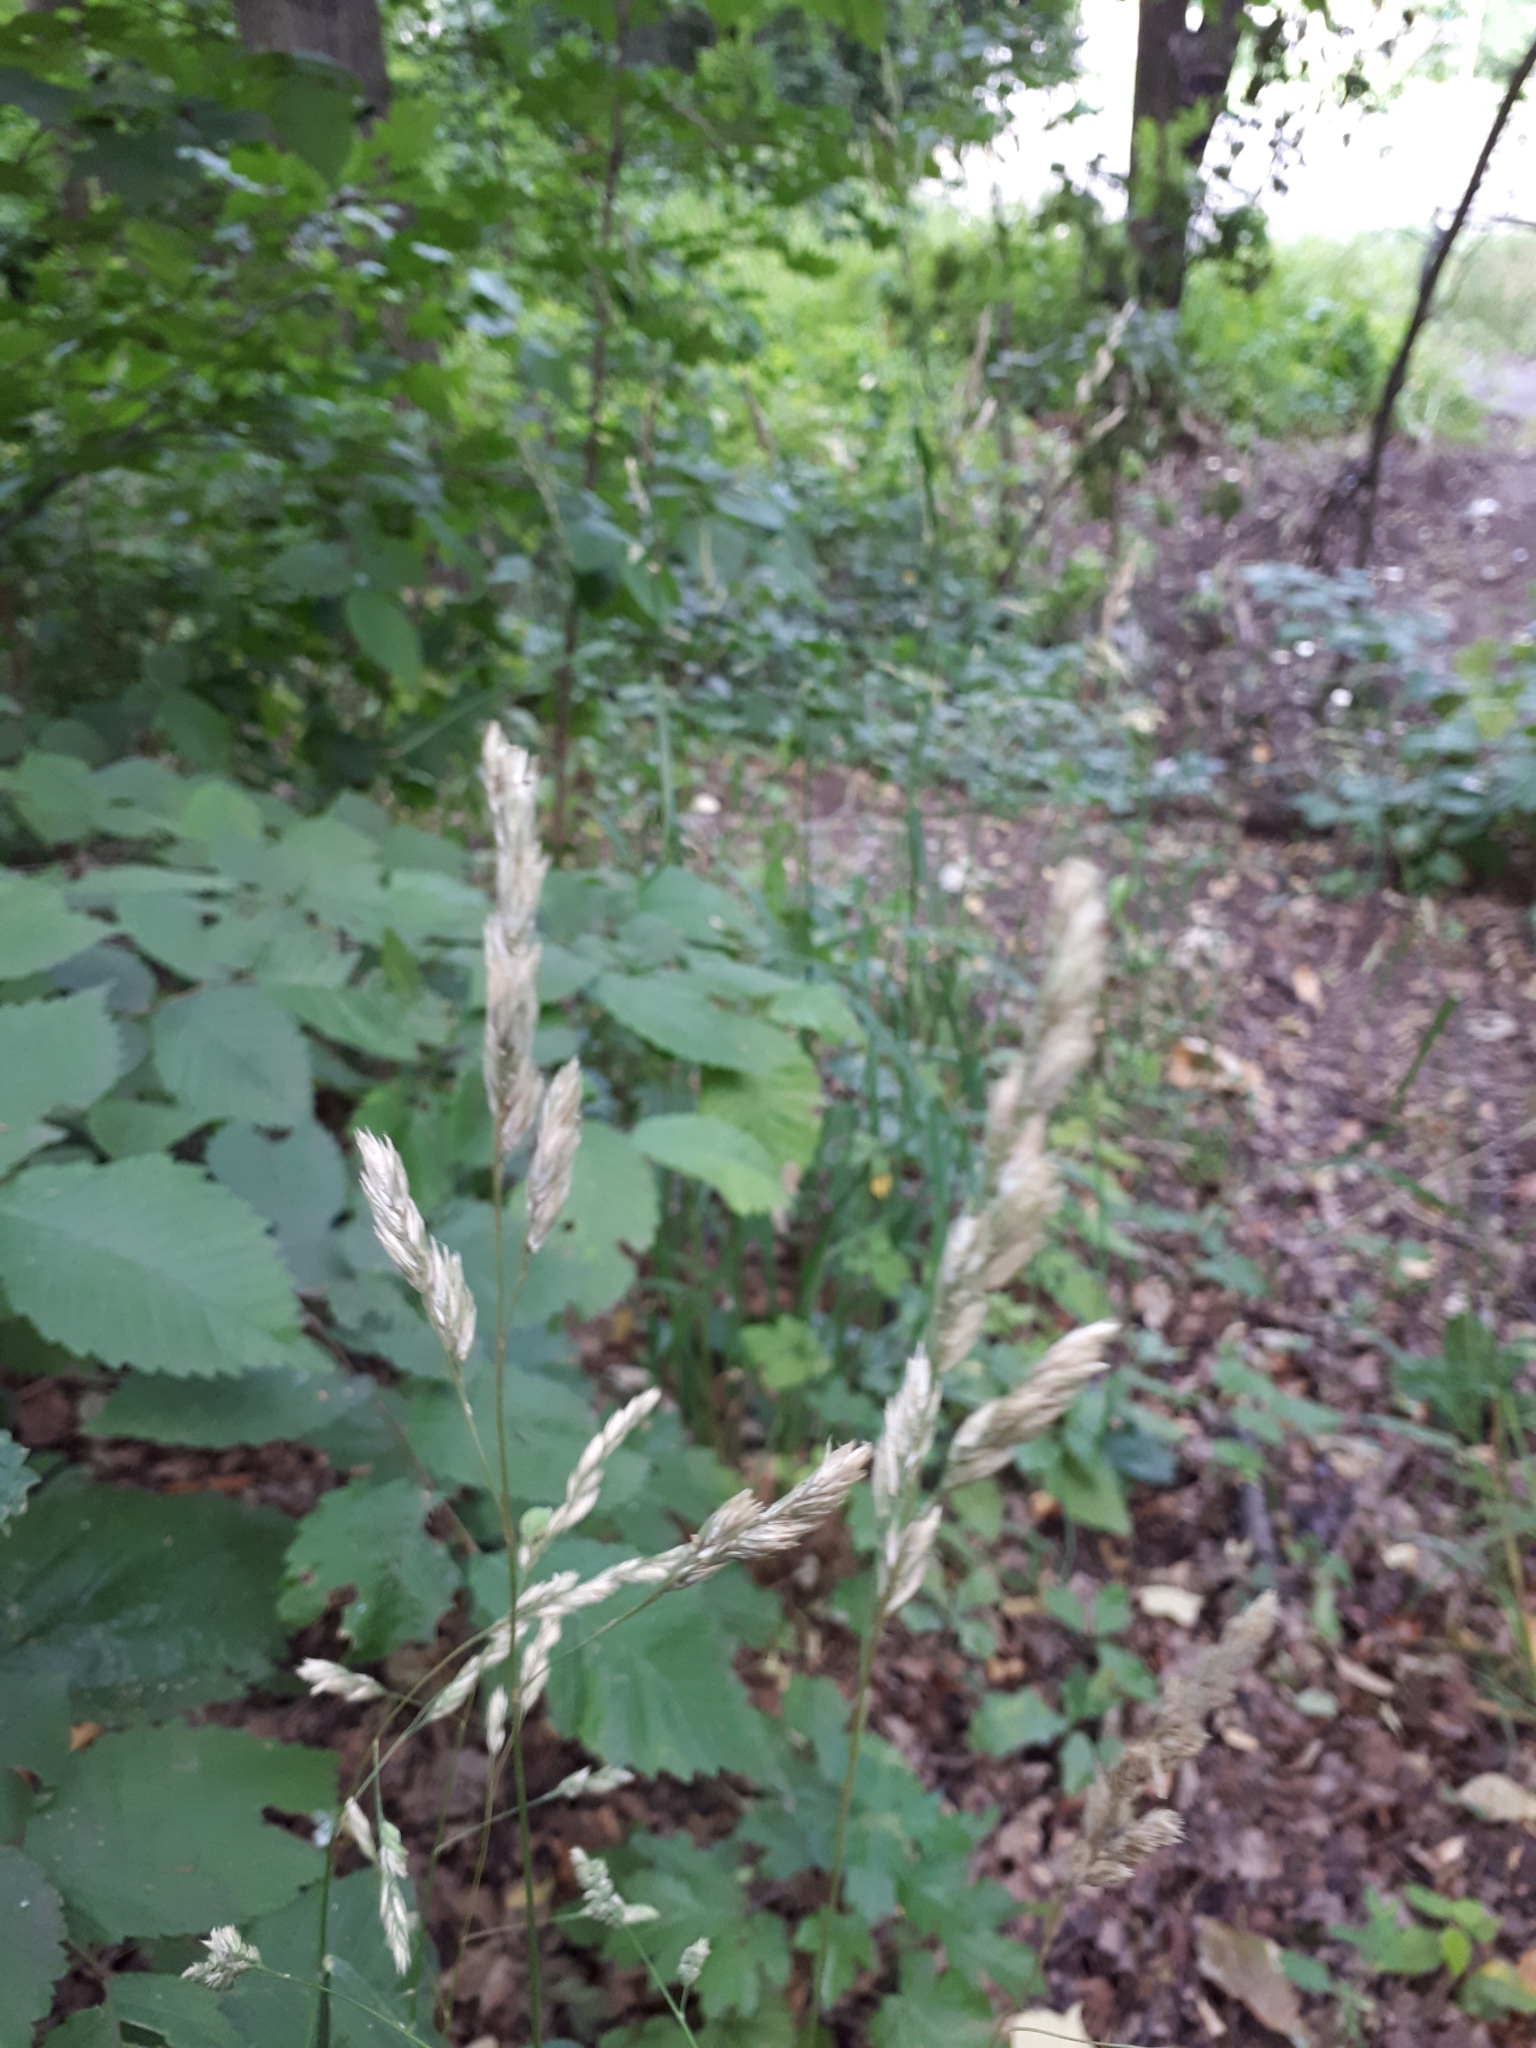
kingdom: Plantae
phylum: Tracheophyta
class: Liliopsida
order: Poales
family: Poaceae
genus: Dactylis
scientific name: Dactylis glomerata
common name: Orchardgrass
